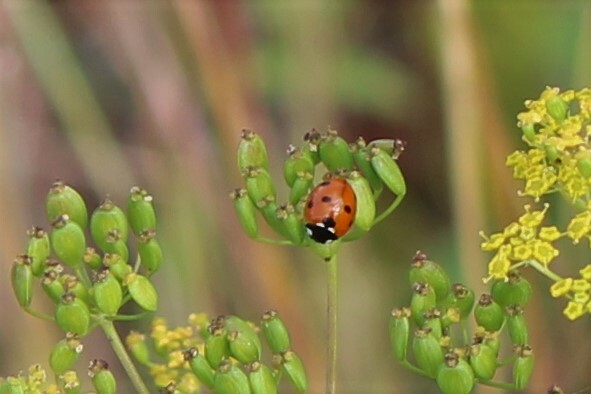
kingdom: Animalia
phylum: Arthropoda
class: Insecta
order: Coleoptera
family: Coccinellidae
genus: Coccinella
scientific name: Coccinella septempunctata
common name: Sevenspotted lady beetle
